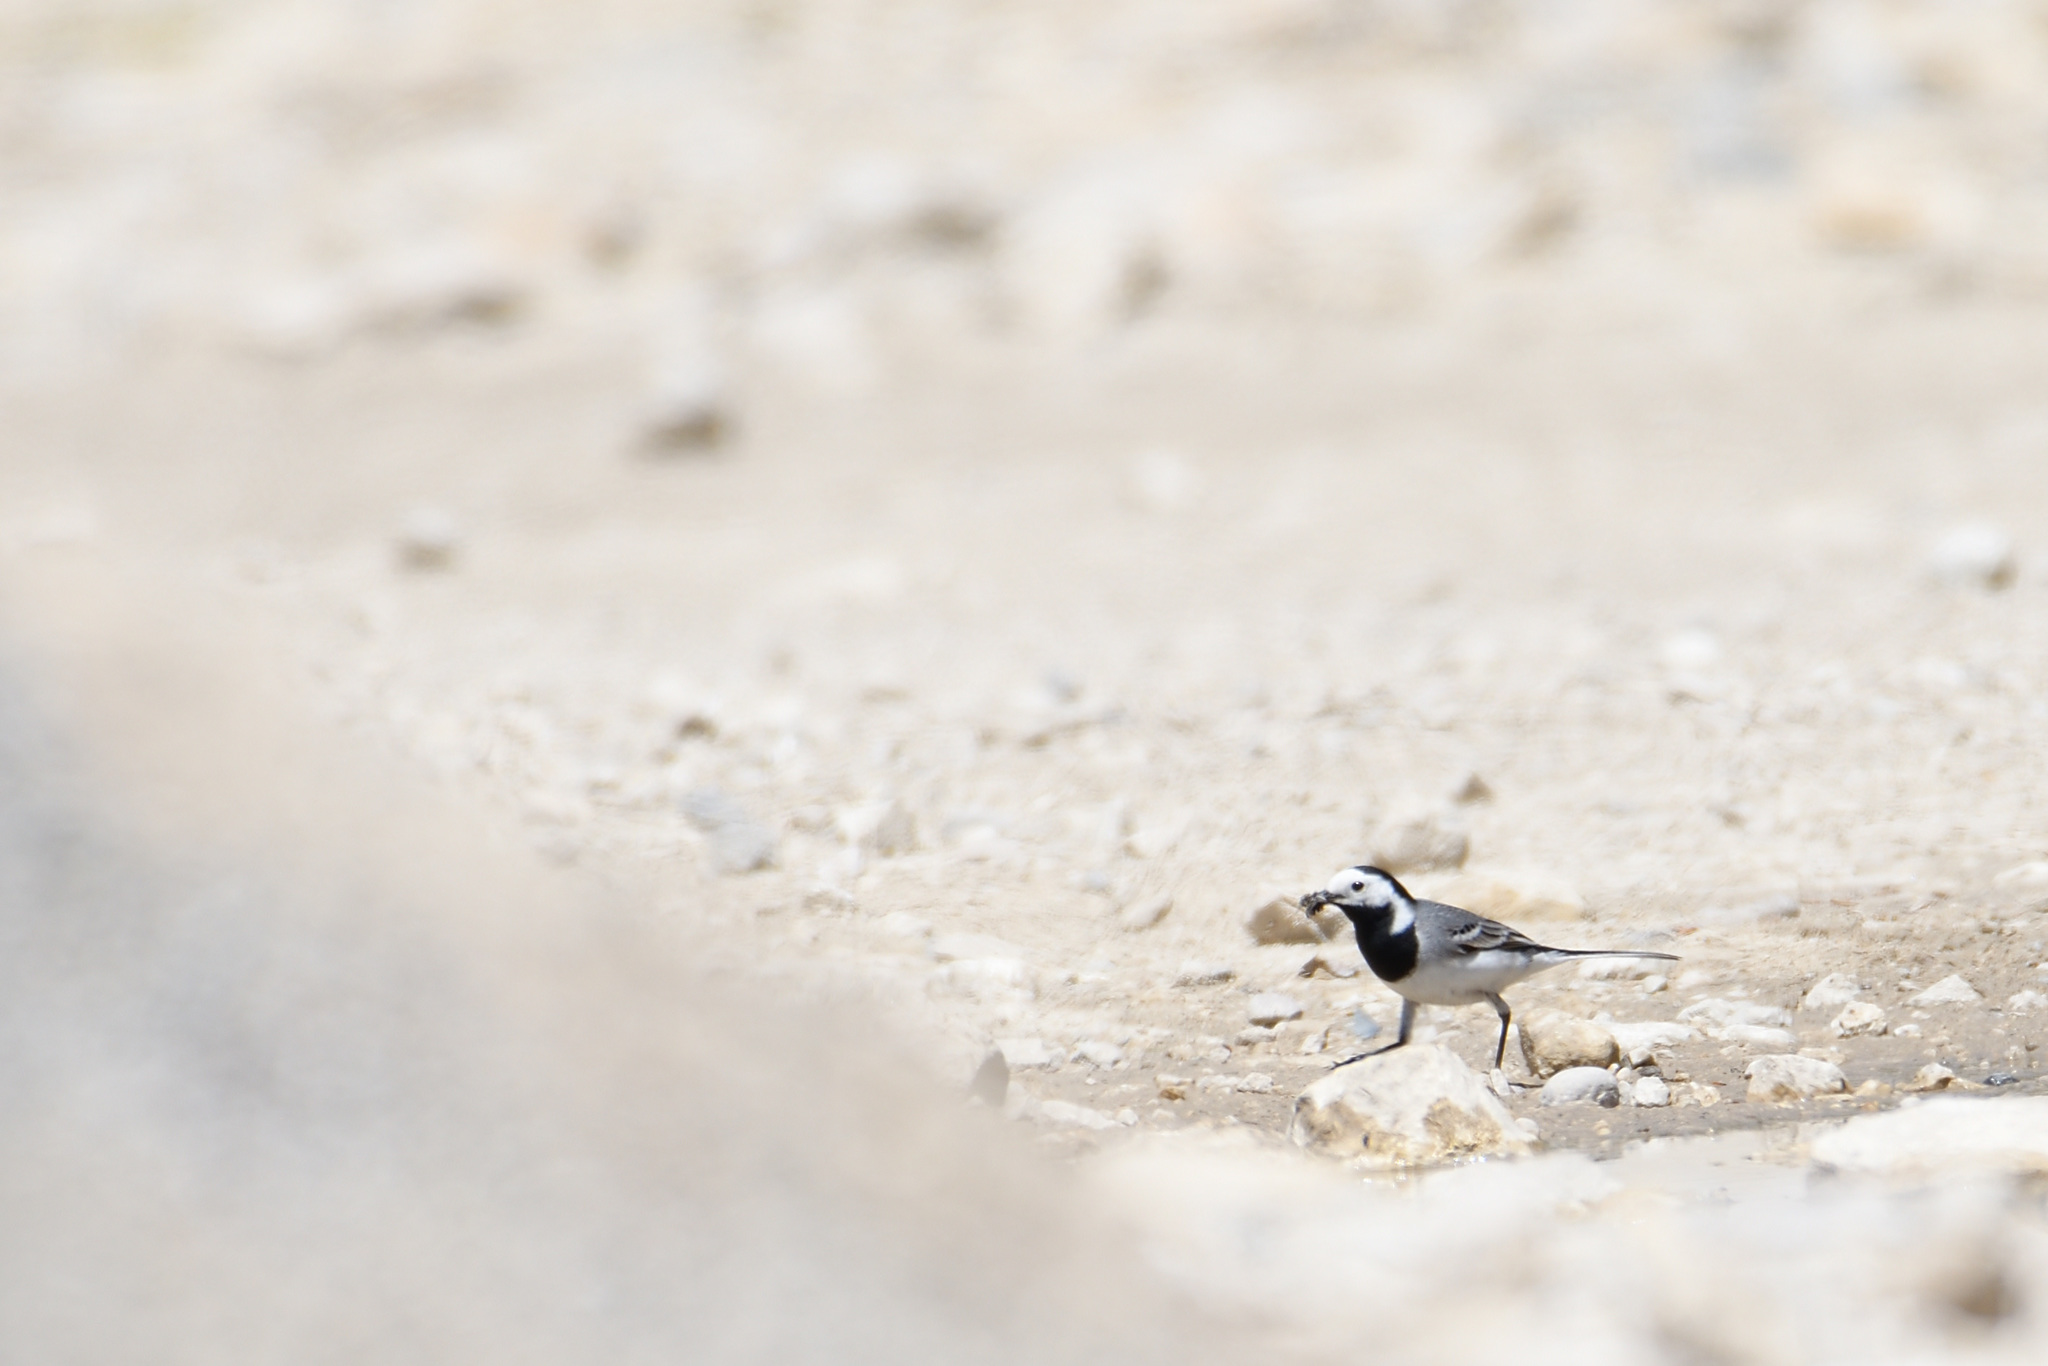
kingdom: Animalia
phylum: Chordata
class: Aves
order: Passeriformes
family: Motacillidae
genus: Motacilla
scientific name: Motacilla alba
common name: White wagtail
